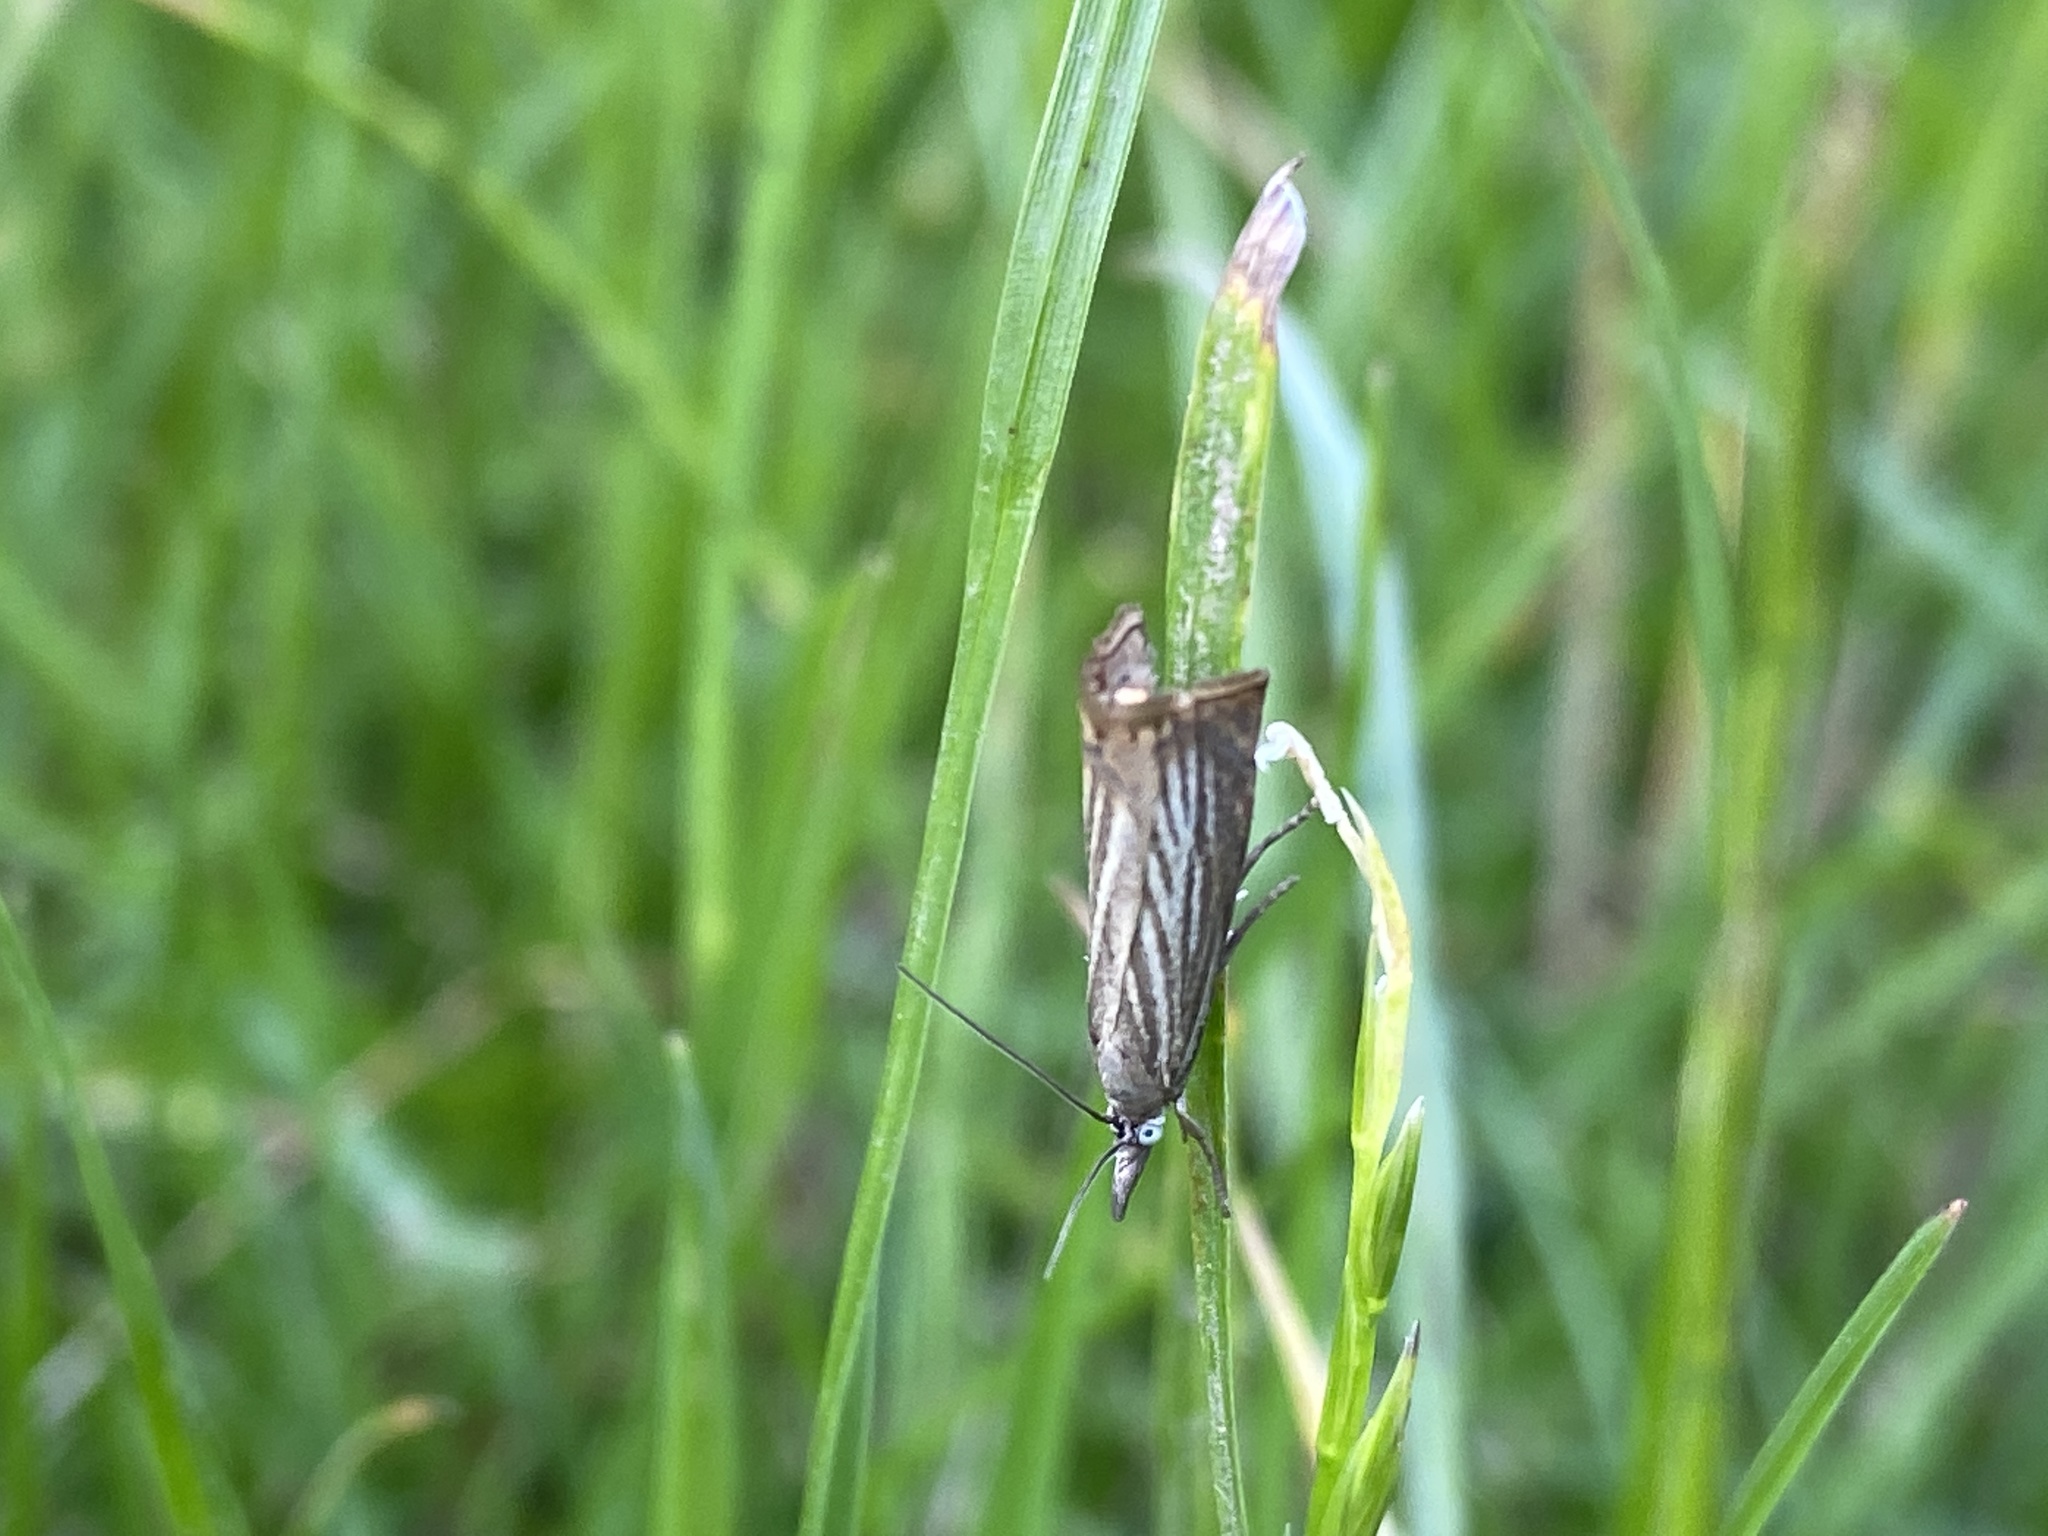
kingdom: Animalia
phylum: Arthropoda
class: Insecta
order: Lepidoptera
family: Crambidae
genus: Chrysoteuchia
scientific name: Chrysoteuchia culmella
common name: Garden grass-veneer
